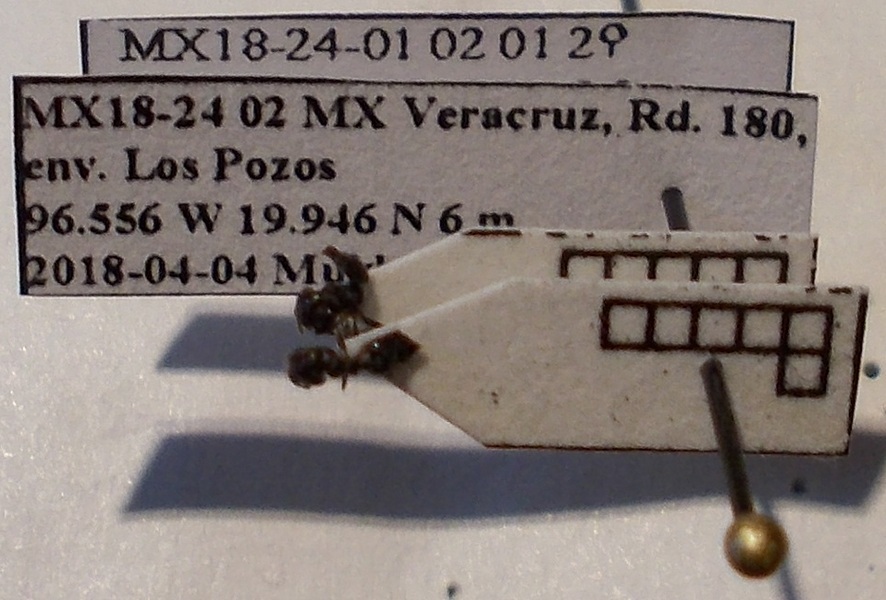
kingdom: Animalia
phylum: Arthropoda
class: Insecta
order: Hymenoptera
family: Formicidae
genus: Crematogaster
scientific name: Crematogaster atra
